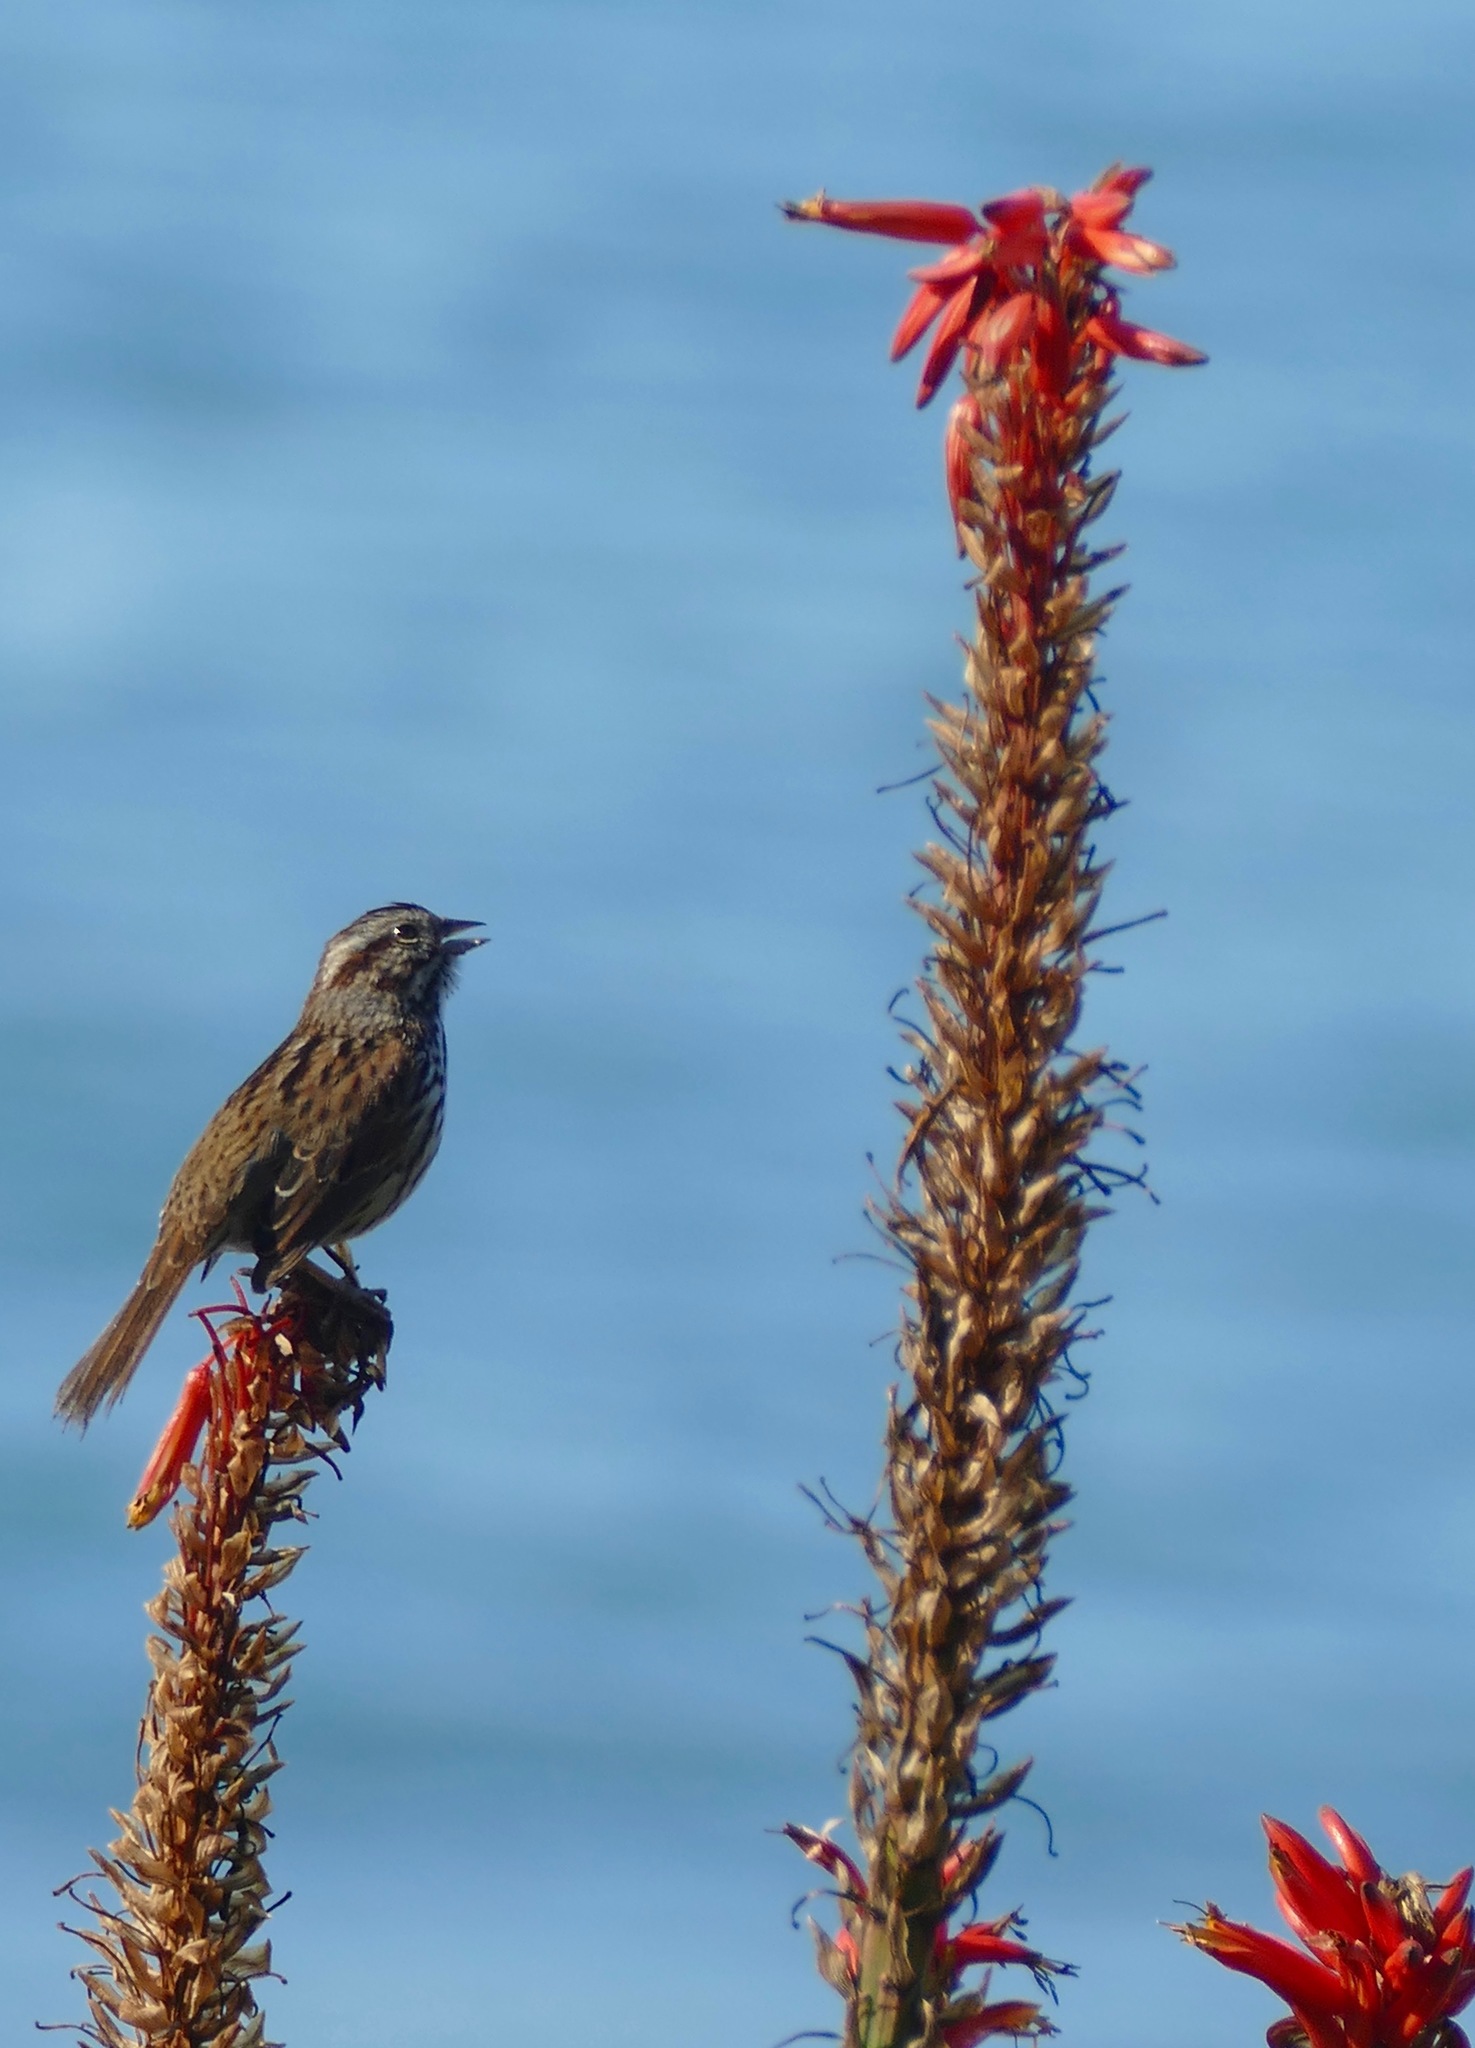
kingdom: Animalia
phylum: Chordata
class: Aves
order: Passeriformes
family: Passerellidae
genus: Melospiza
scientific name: Melospiza melodia
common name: Song sparrow
